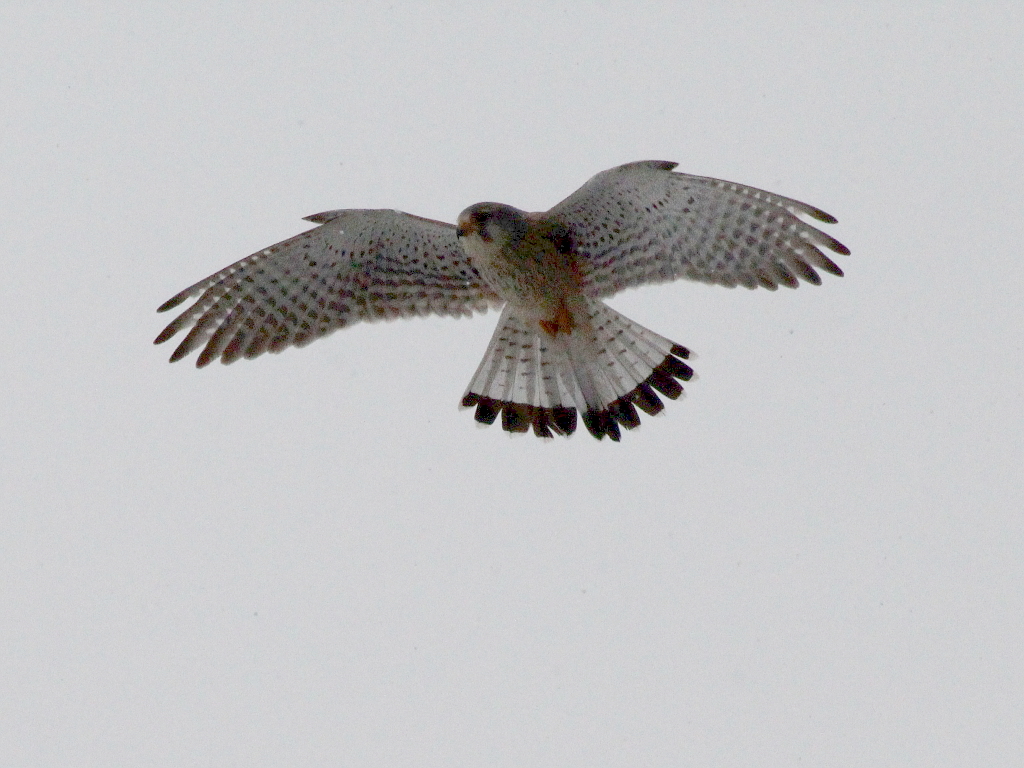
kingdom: Animalia
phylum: Chordata
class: Aves
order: Falconiformes
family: Falconidae
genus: Falco
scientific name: Falco tinnunculus
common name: Common kestrel
